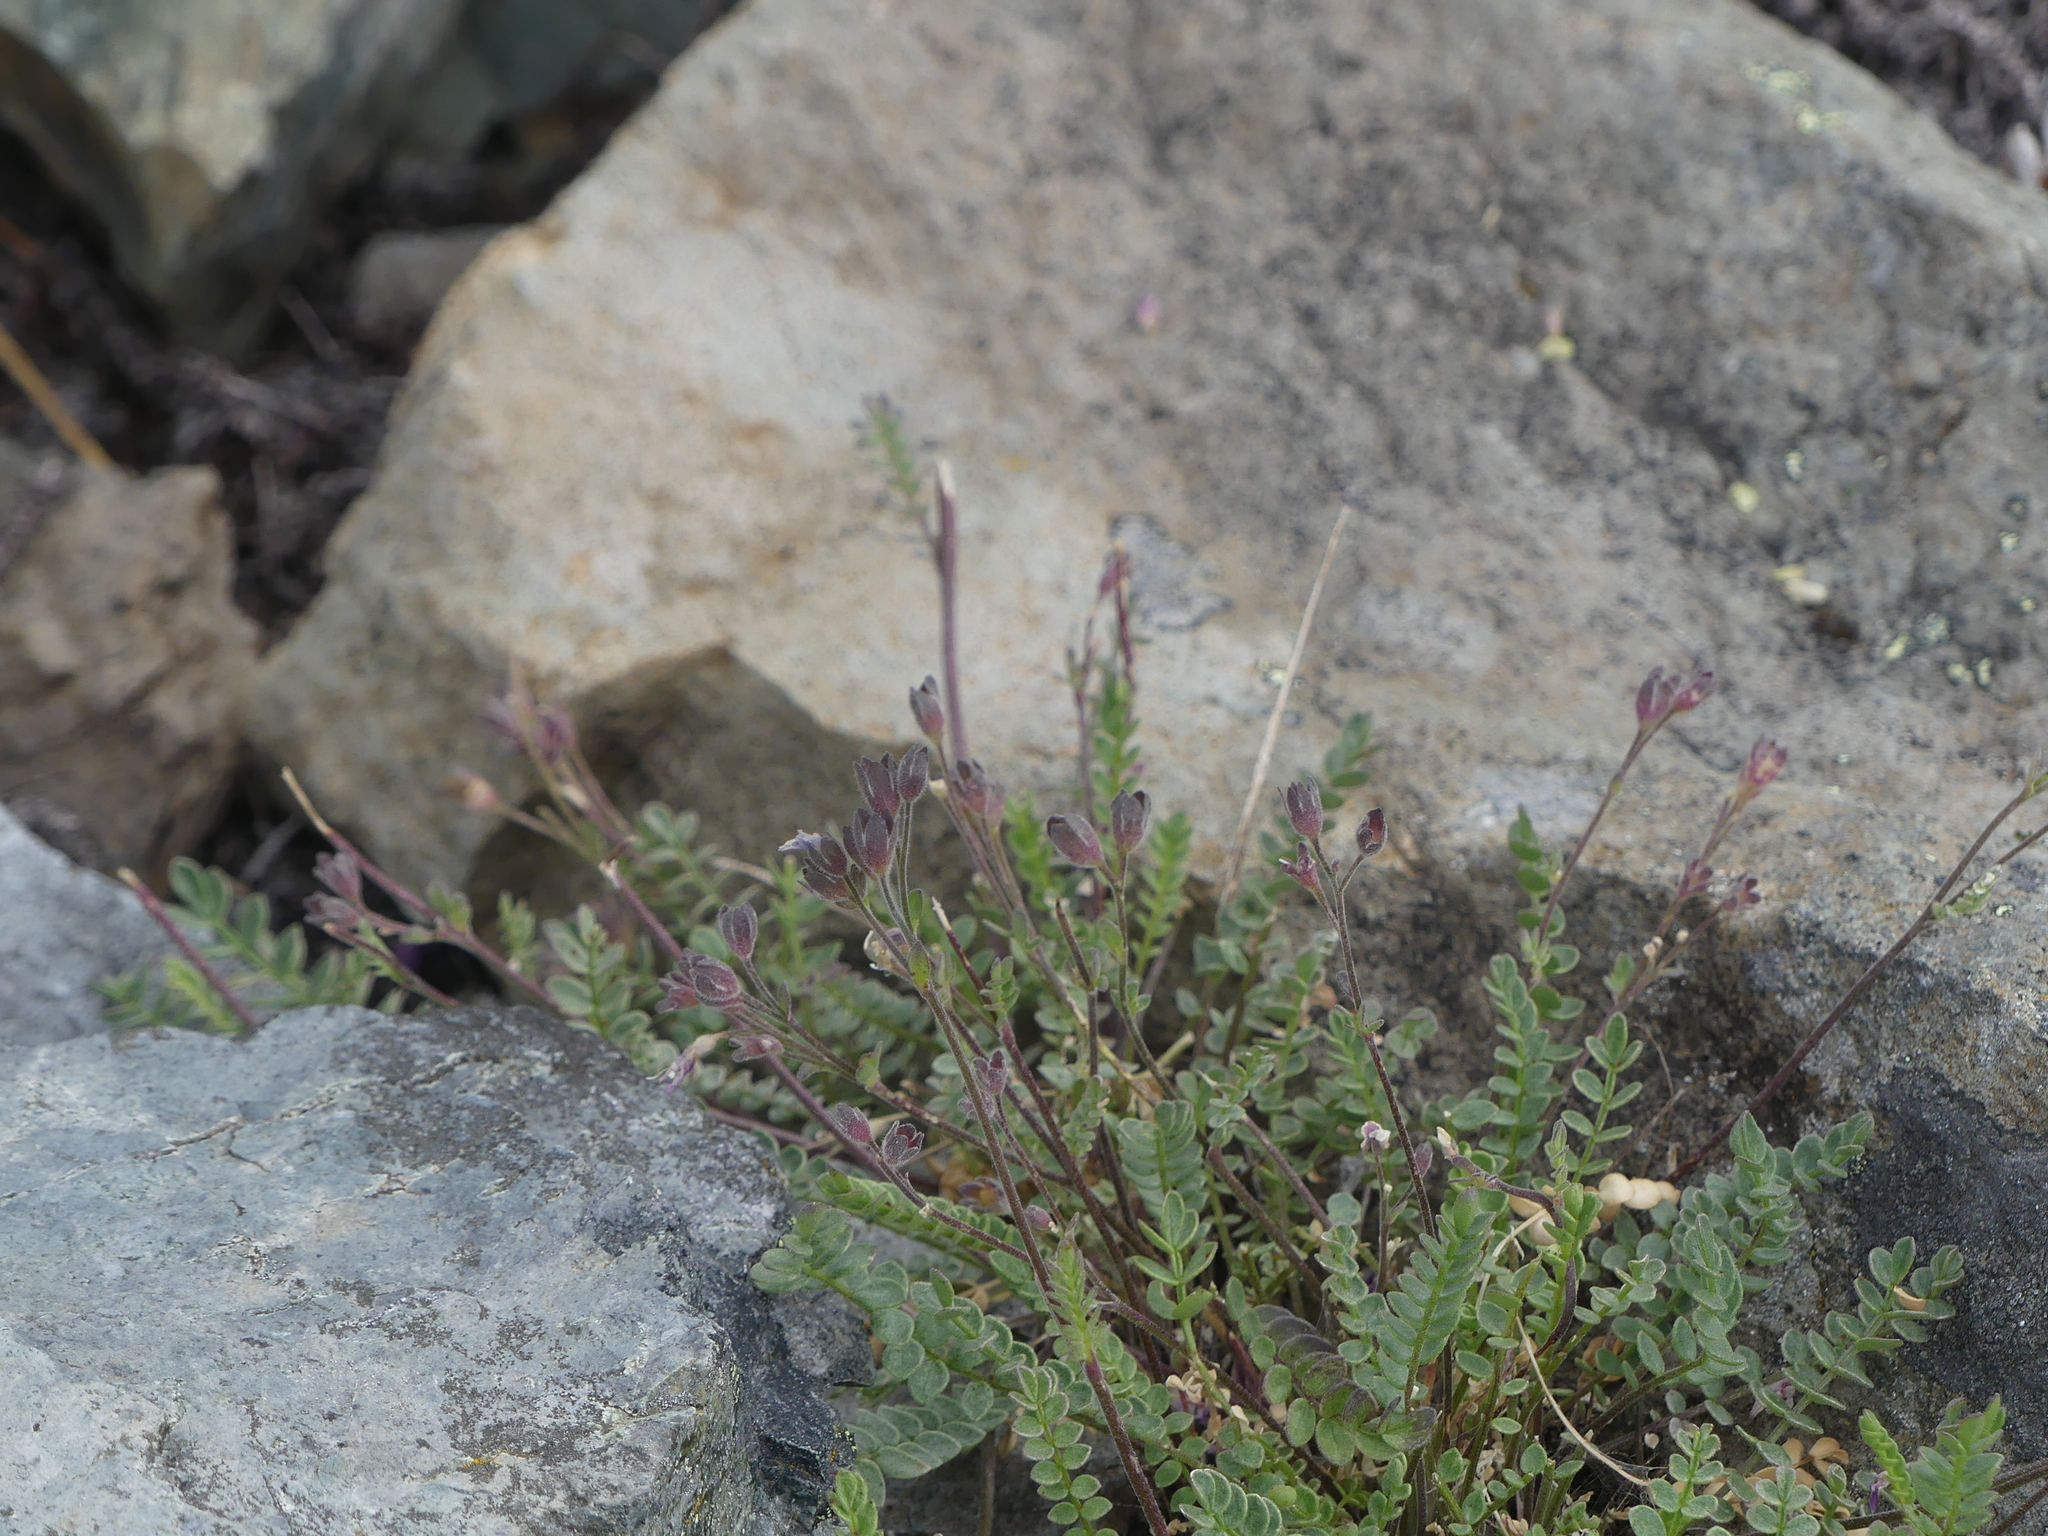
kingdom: Plantae
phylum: Tracheophyta
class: Magnoliopsida
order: Ericales
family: Polemoniaceae
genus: Polemonium
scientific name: Polemonium pulcherrimum
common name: Short jacob's-ladder
